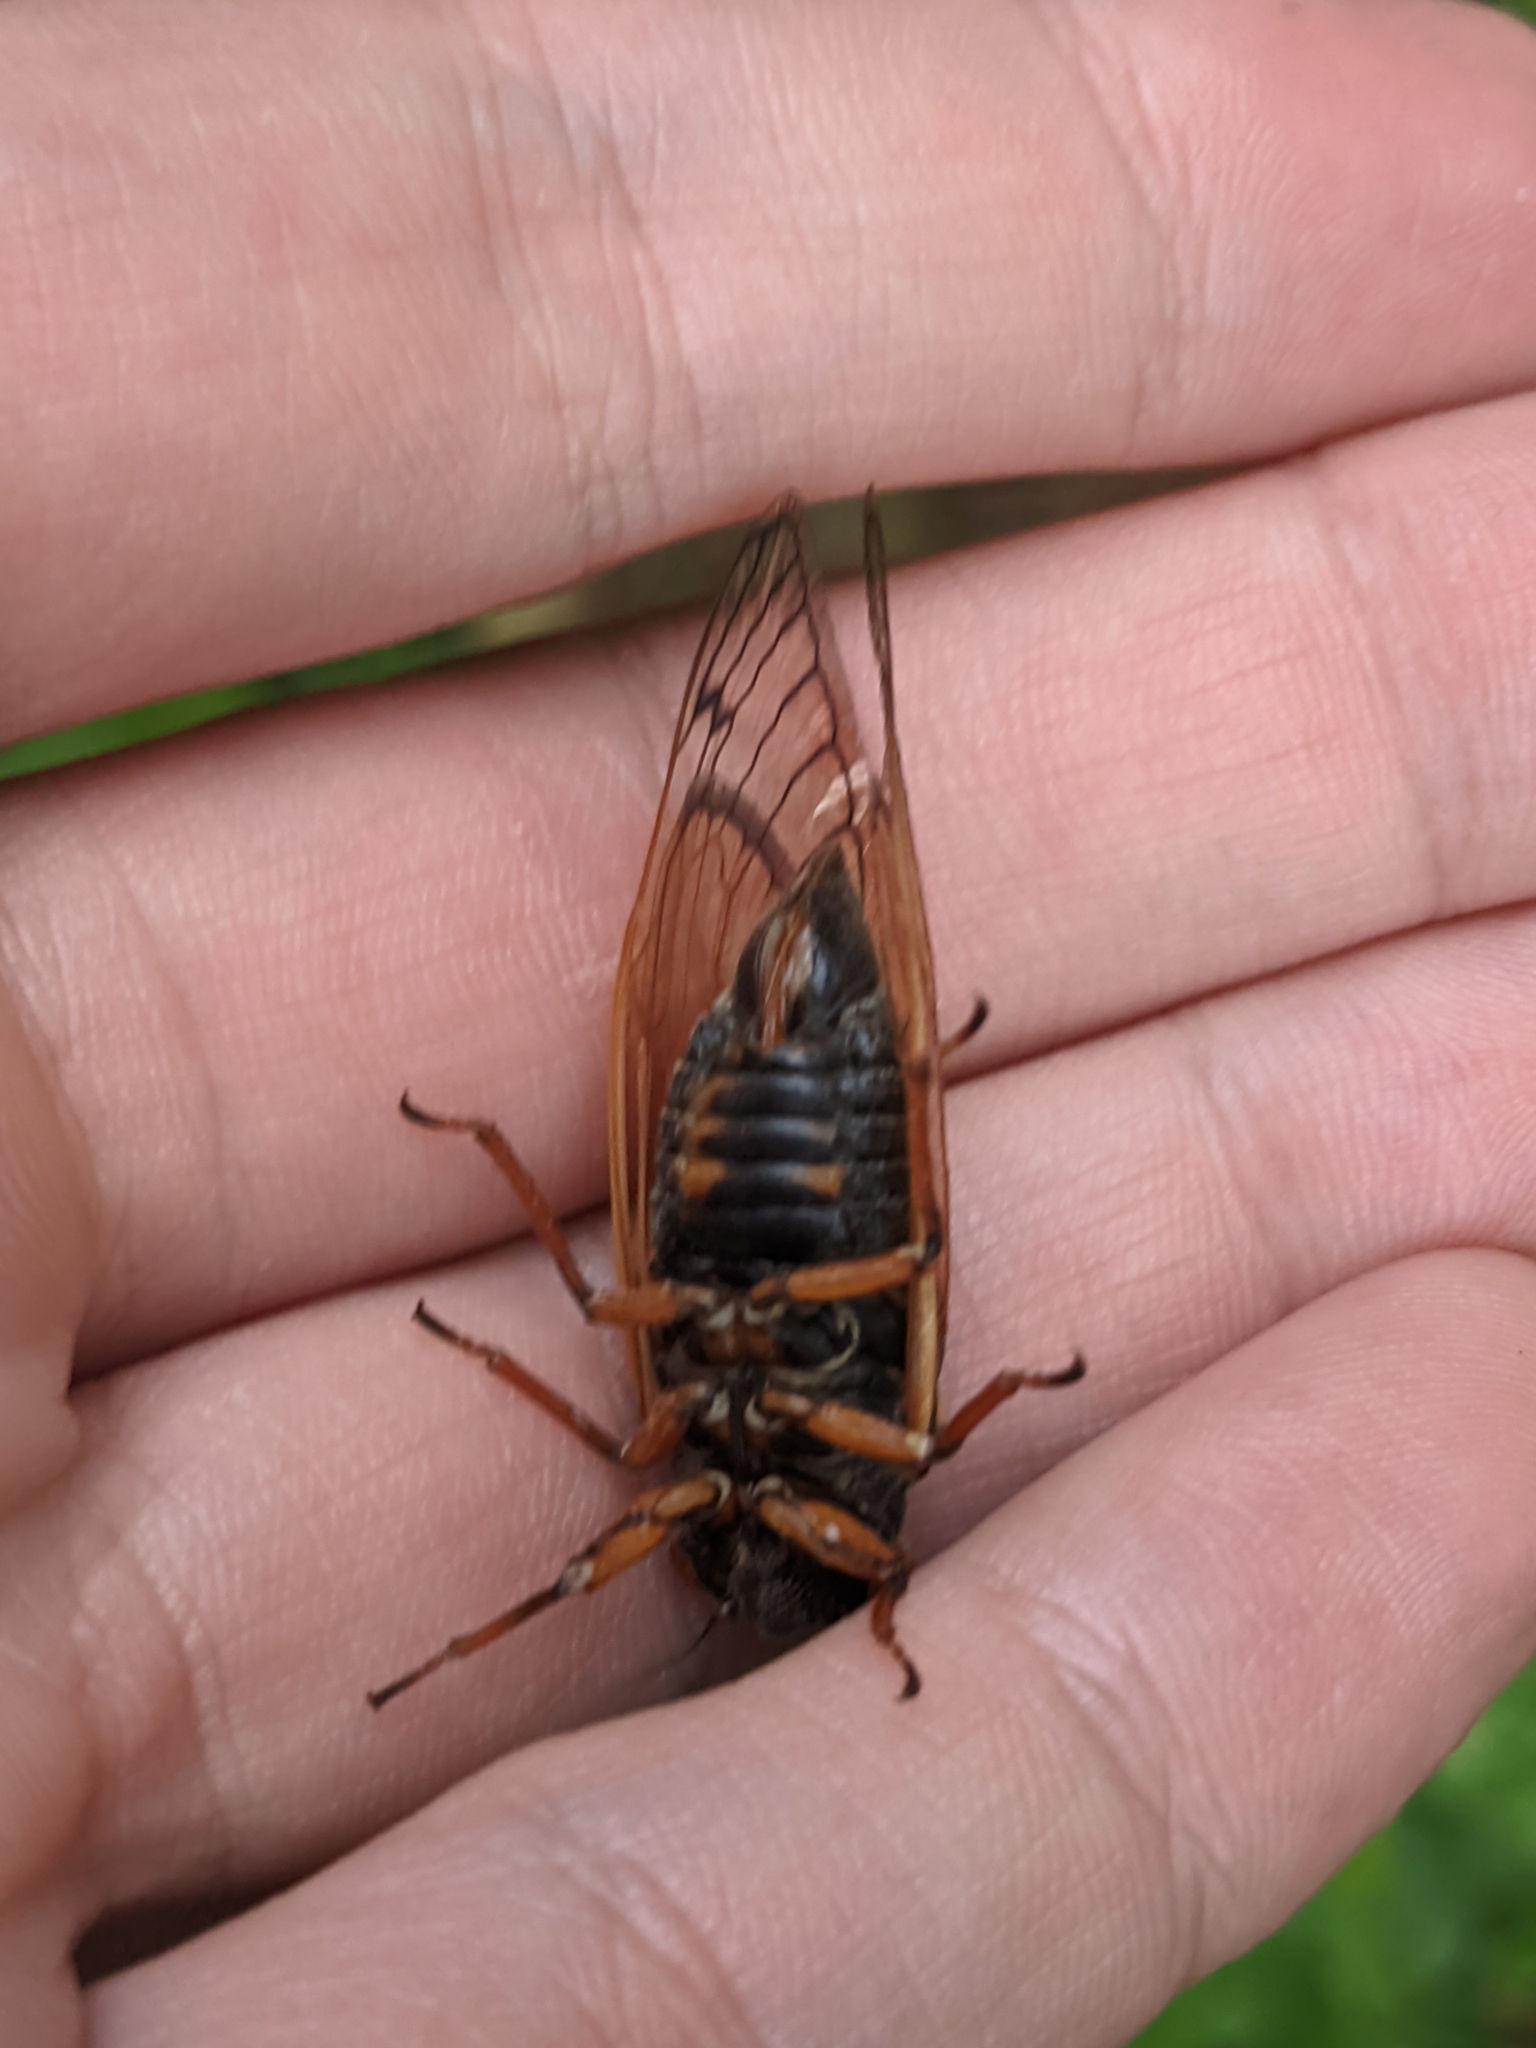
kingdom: Animalia
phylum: Arthropoda
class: Insecta
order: Hemiptera
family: Cicadidae
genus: Magicicada
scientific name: Magicicada cassini
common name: Cassin's 17-year cicada
